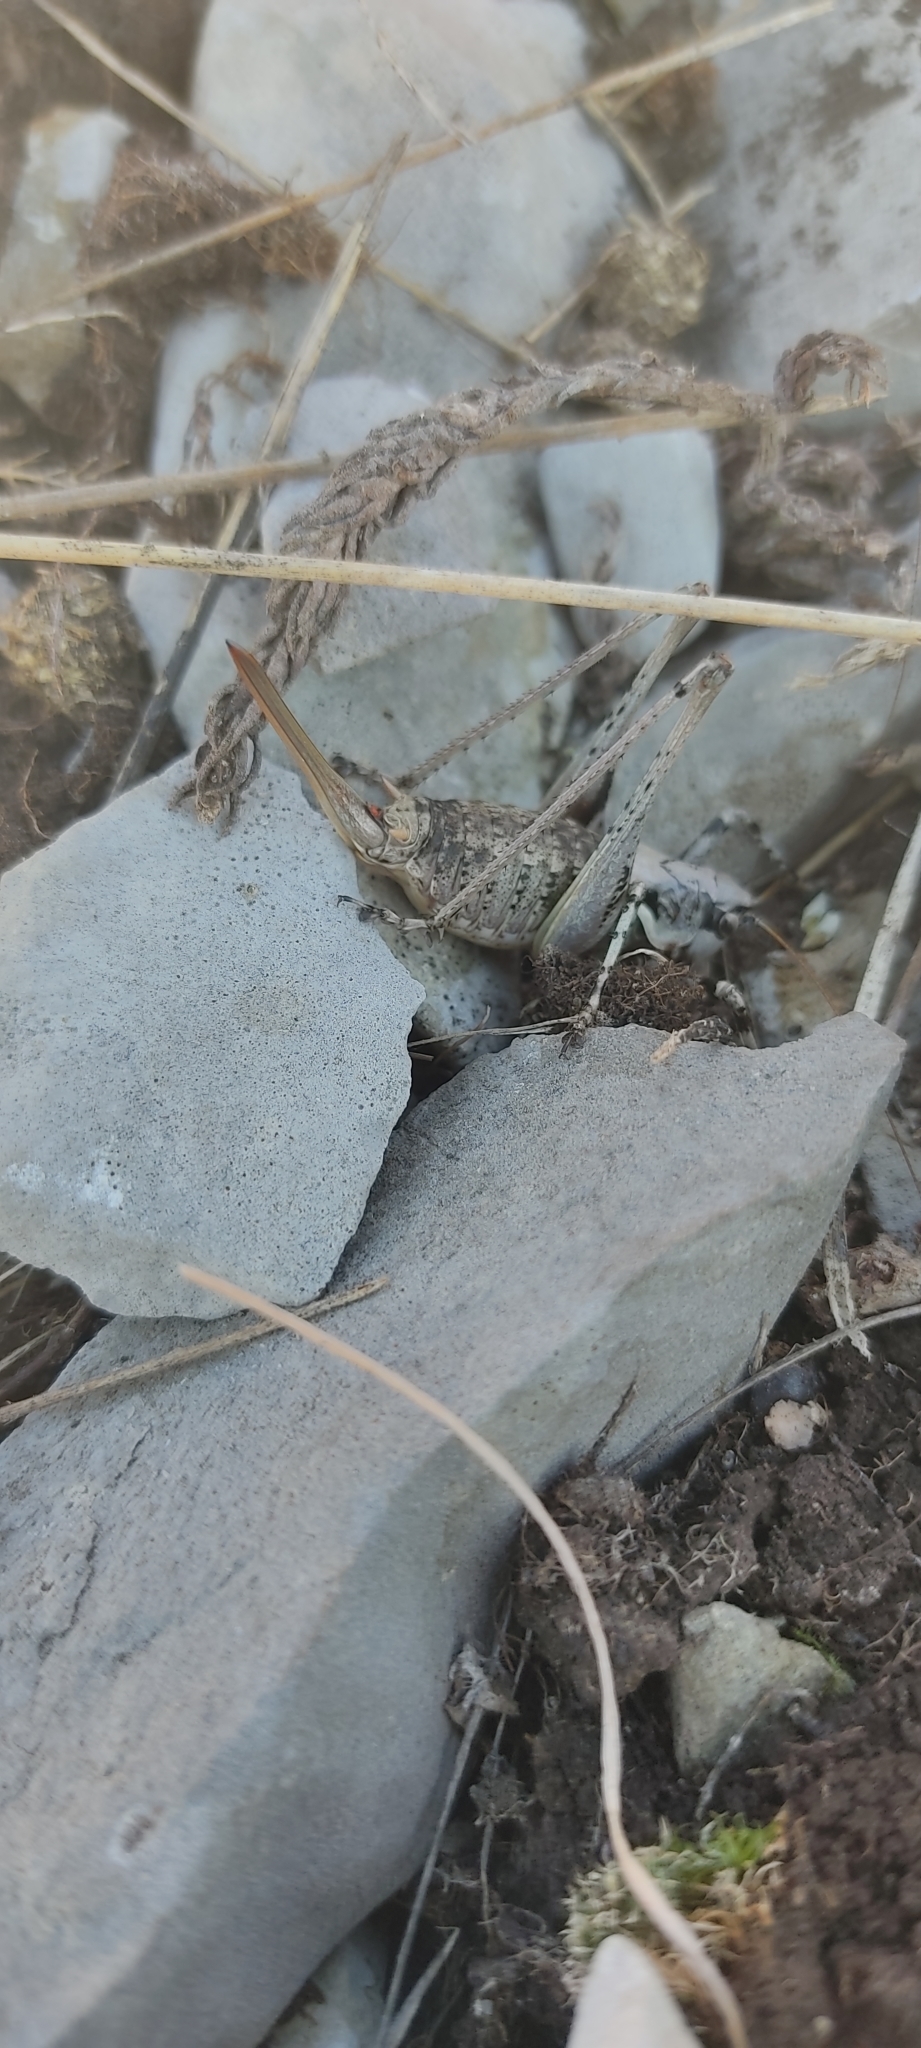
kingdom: Animalia
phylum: Arthropoda
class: Insecta
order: Orthoptera
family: Tettigoniidae
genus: Antaxius
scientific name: Antaxius pedestris
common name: Common mountain bush-cricket
